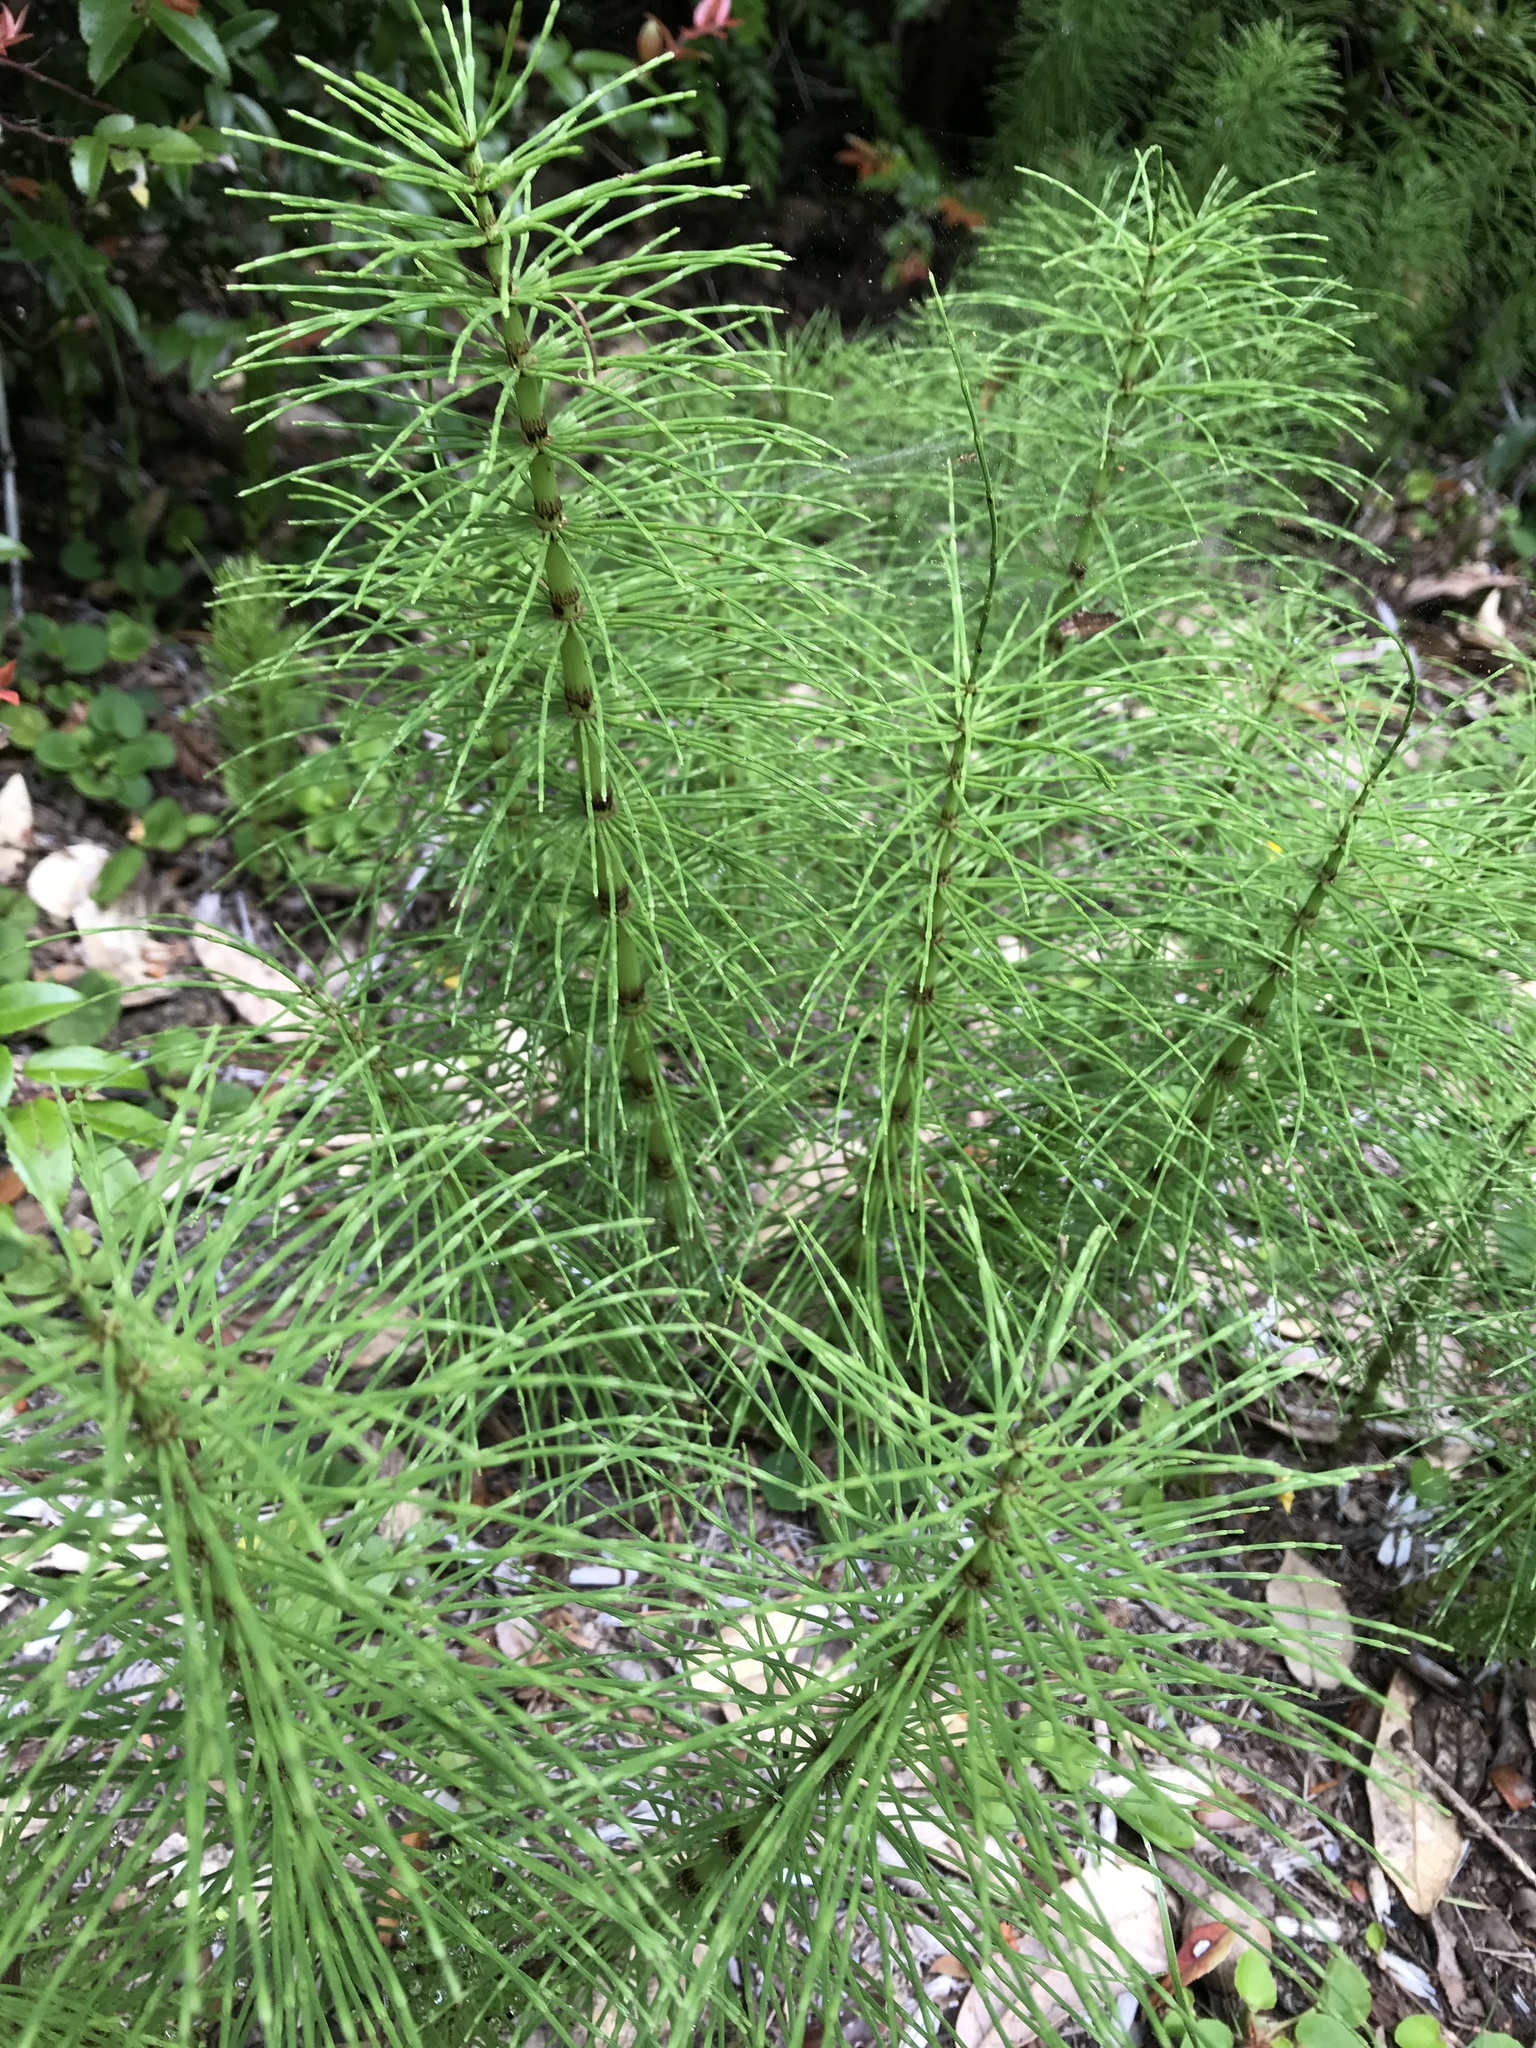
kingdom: Plantae
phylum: Tracheophyta
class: Polypodiopsida
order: Equisetales
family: Equisetaceae
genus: Equisetum
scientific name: Equisetum braunii
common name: Braun's horsetail
